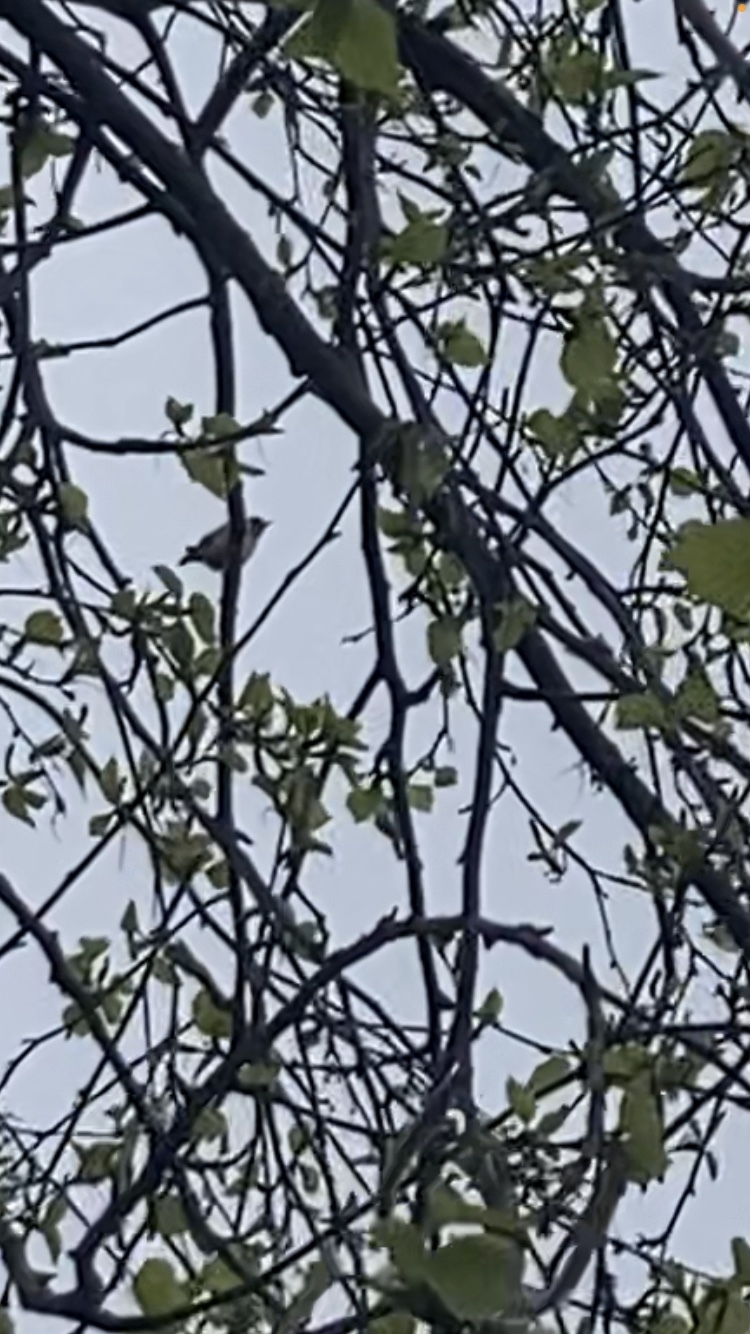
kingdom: Animalia
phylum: Chordata
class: Aves
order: Passeriformes
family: Fringillidae
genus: Carduelis
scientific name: Carduelis carduelis
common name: European goldfinch
